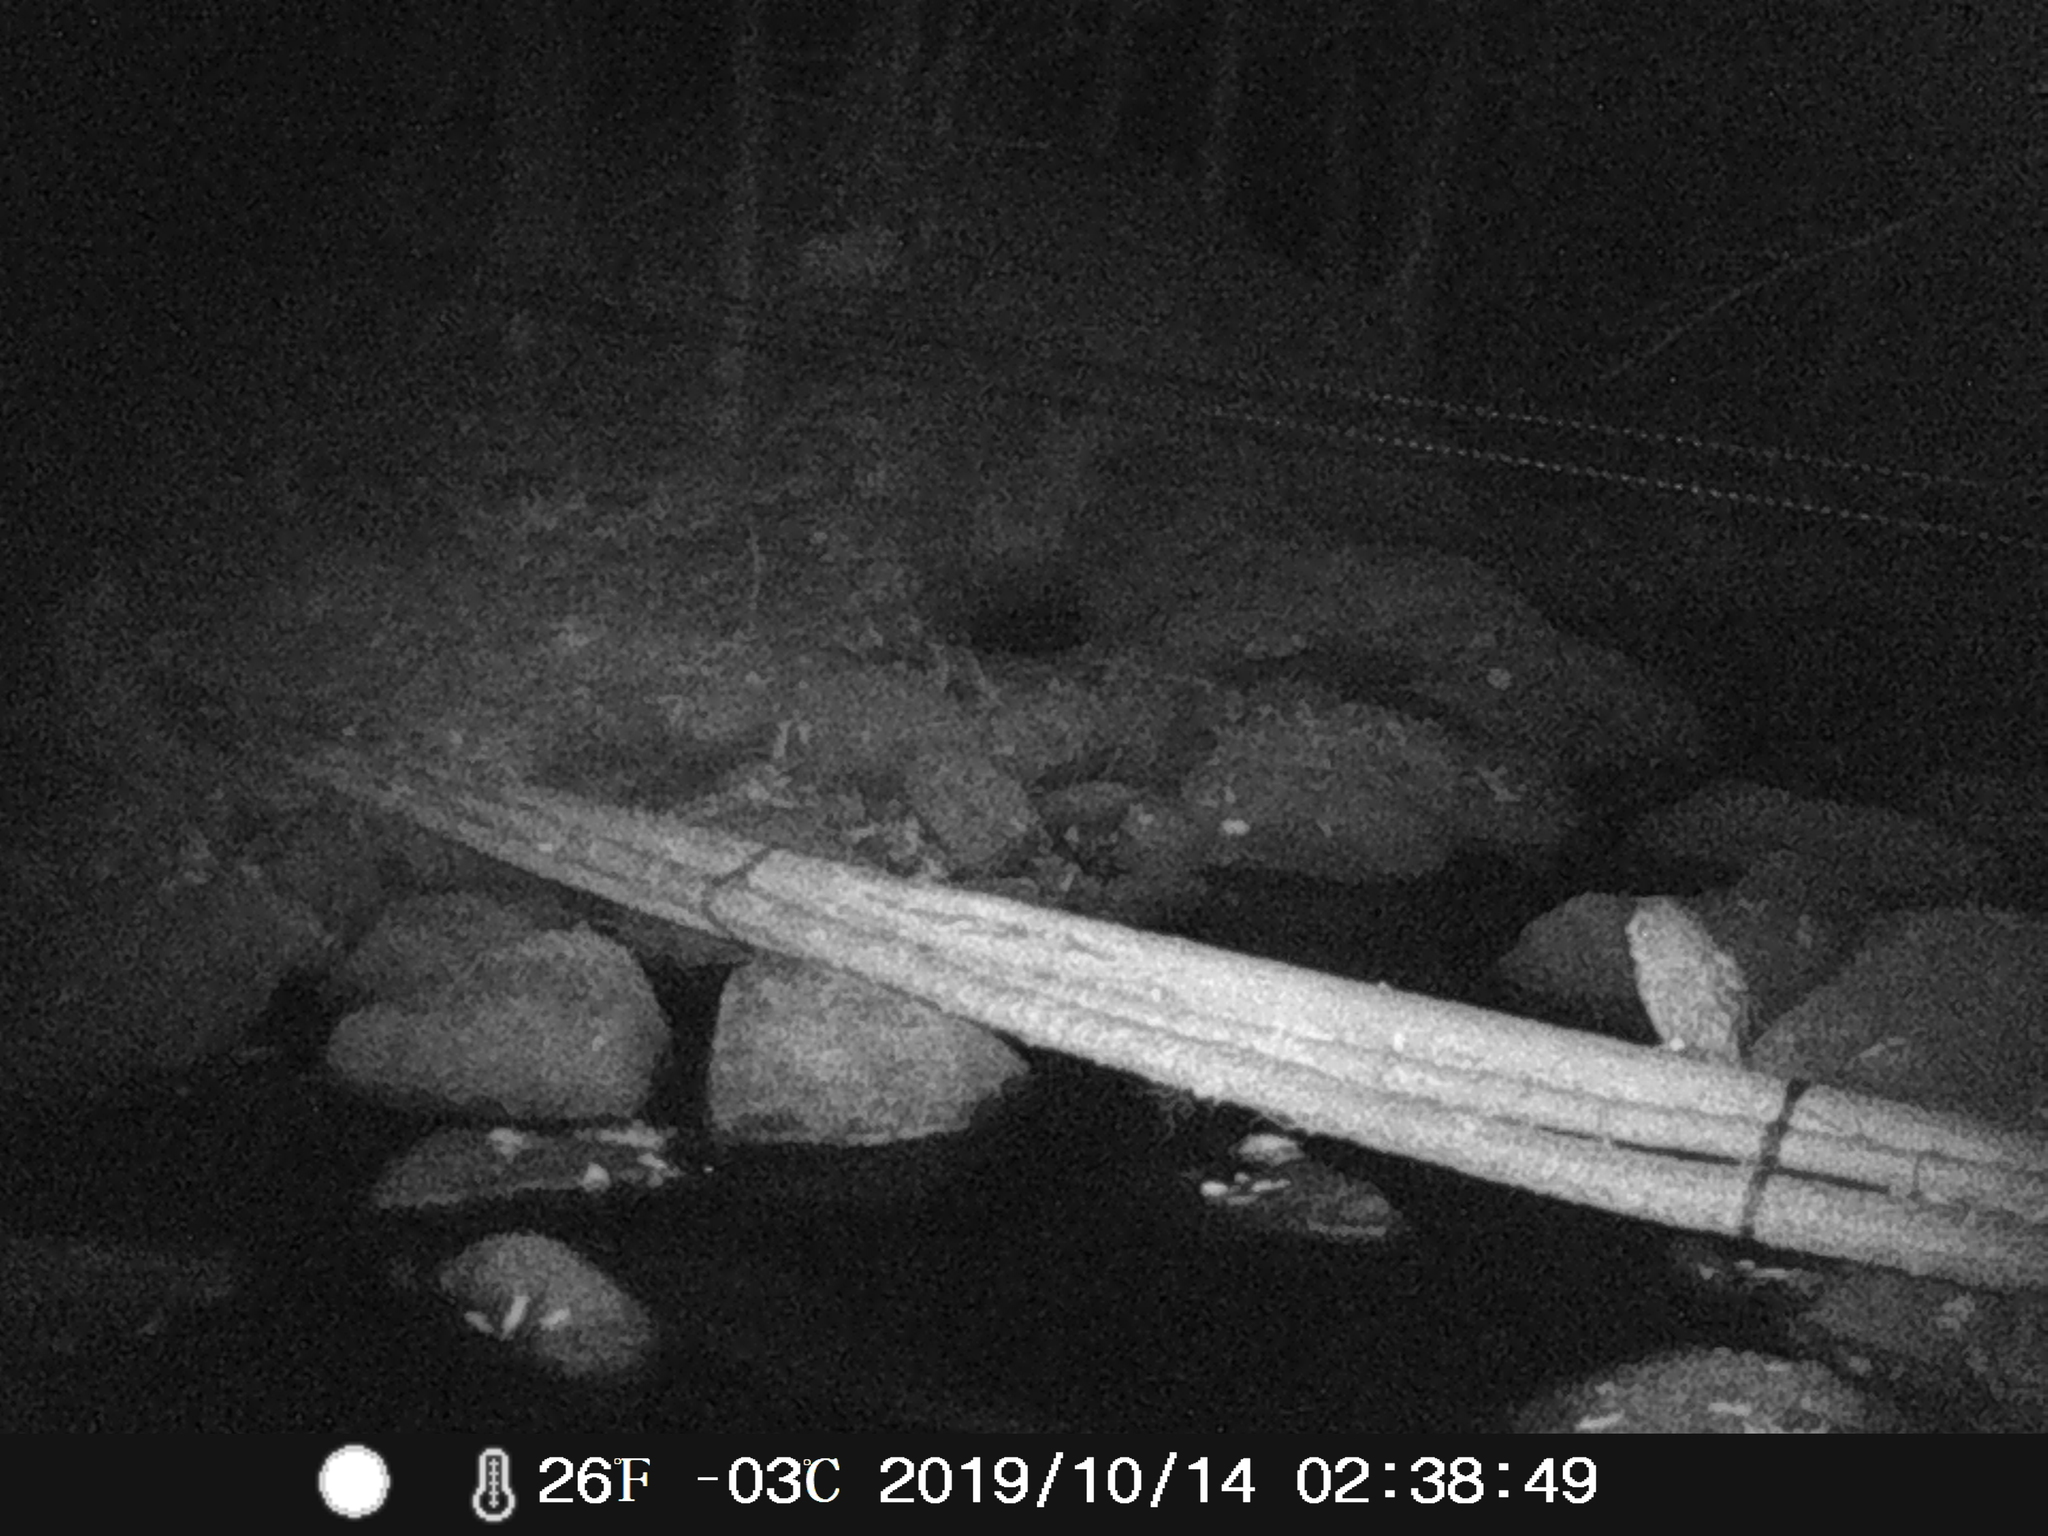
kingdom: Animalia
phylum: Chordata
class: Aves
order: Strigiformes
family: Strigidae
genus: Strix
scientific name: Strix varia
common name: Barred owl
